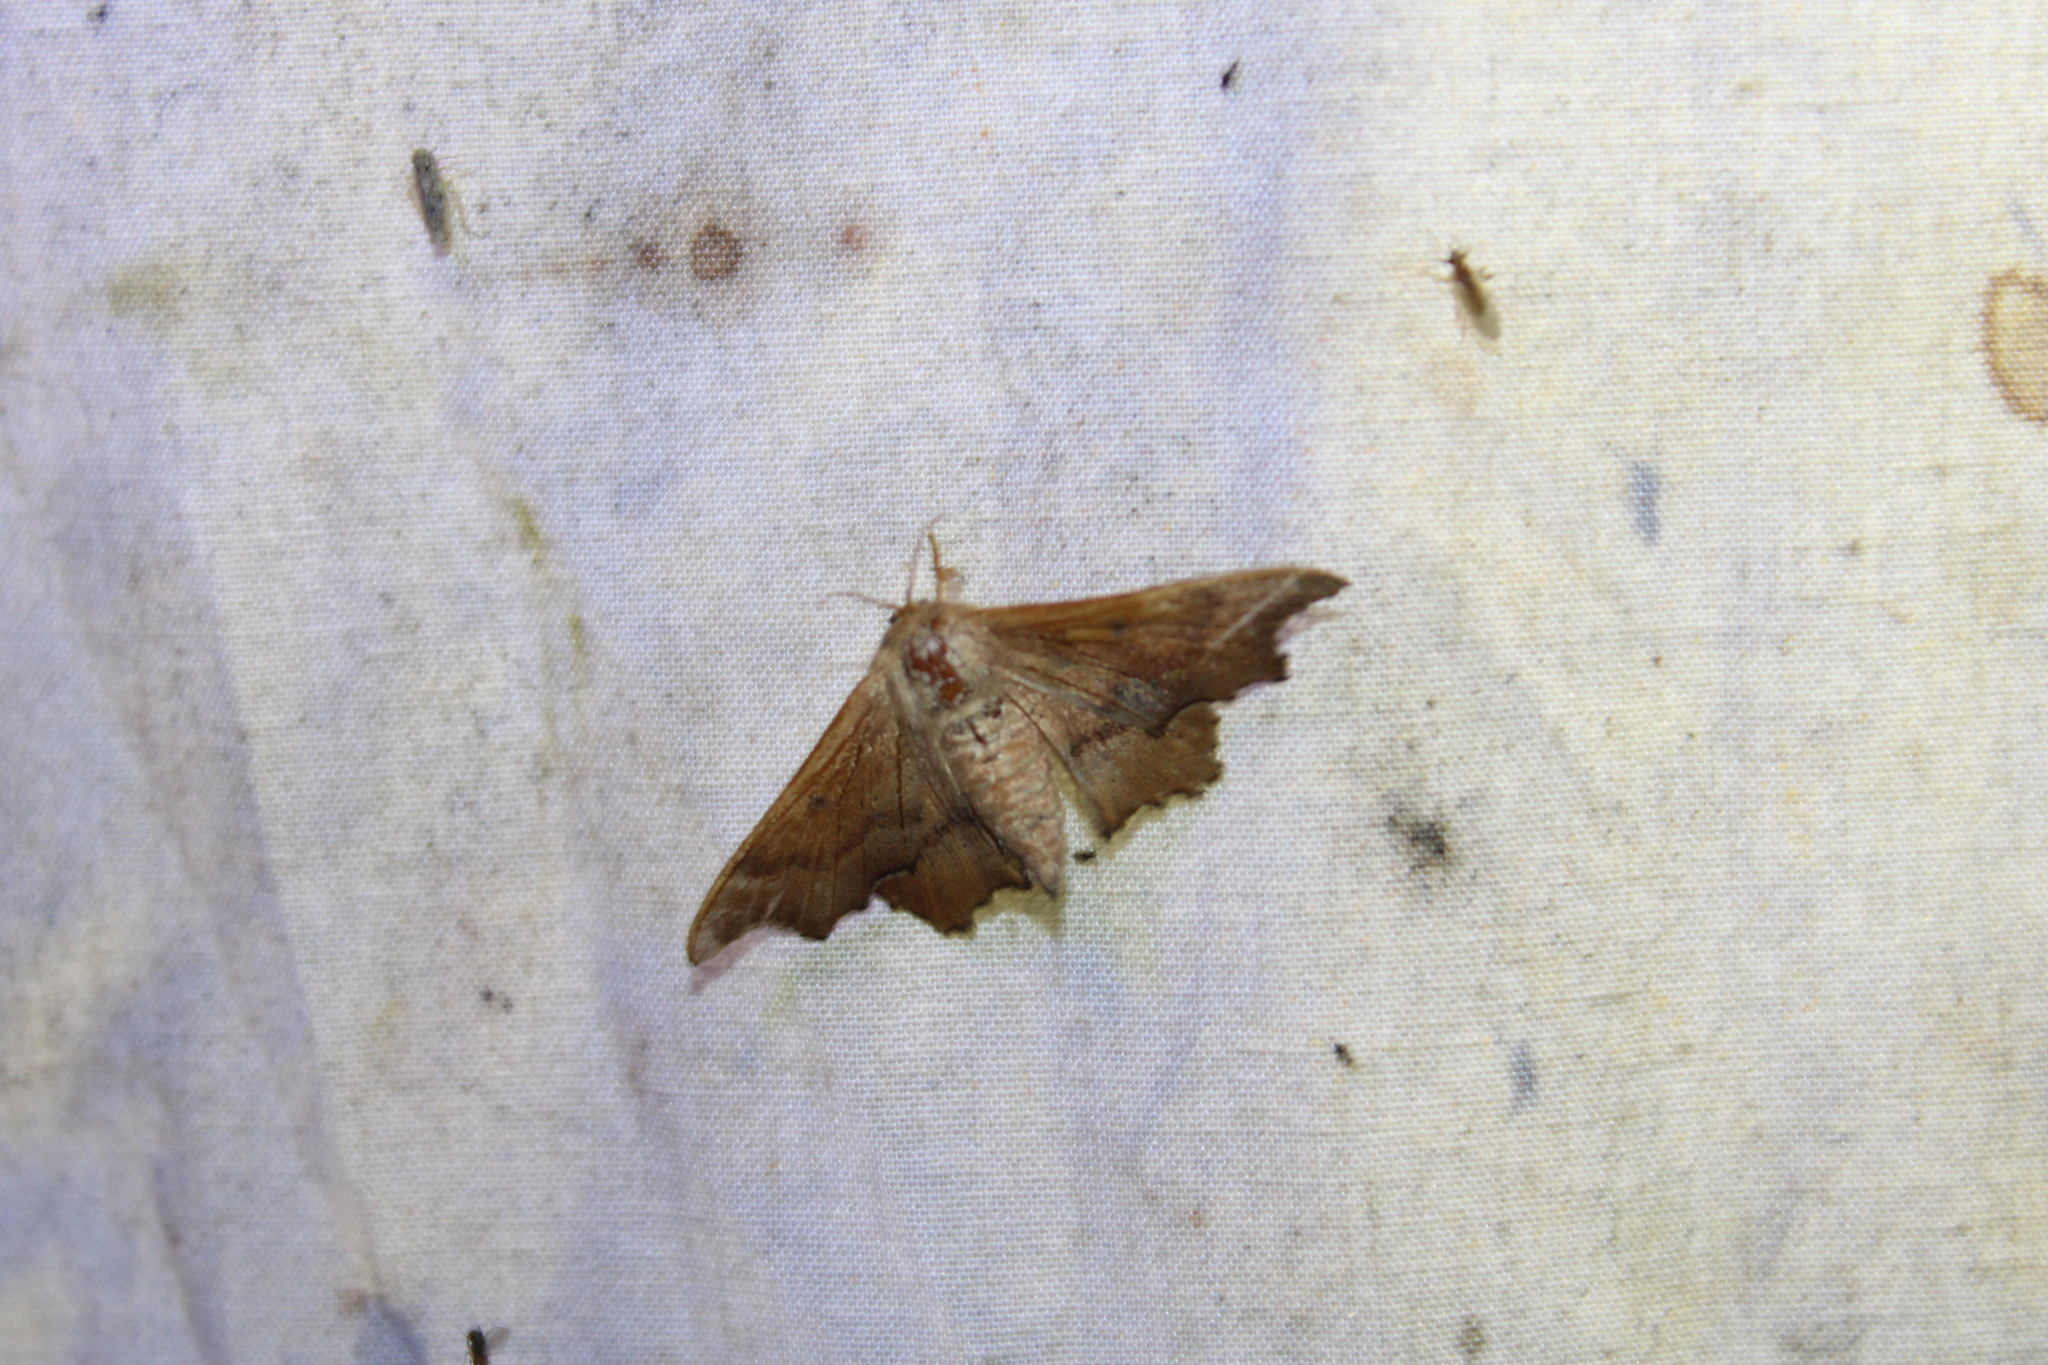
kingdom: Animalia
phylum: Arthropoda
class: Insecta
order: Lepidoptera
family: Mimallonidae
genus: Lacosoma
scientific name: Lacosoma chiridota
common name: Scalloped sack-bearer moth
